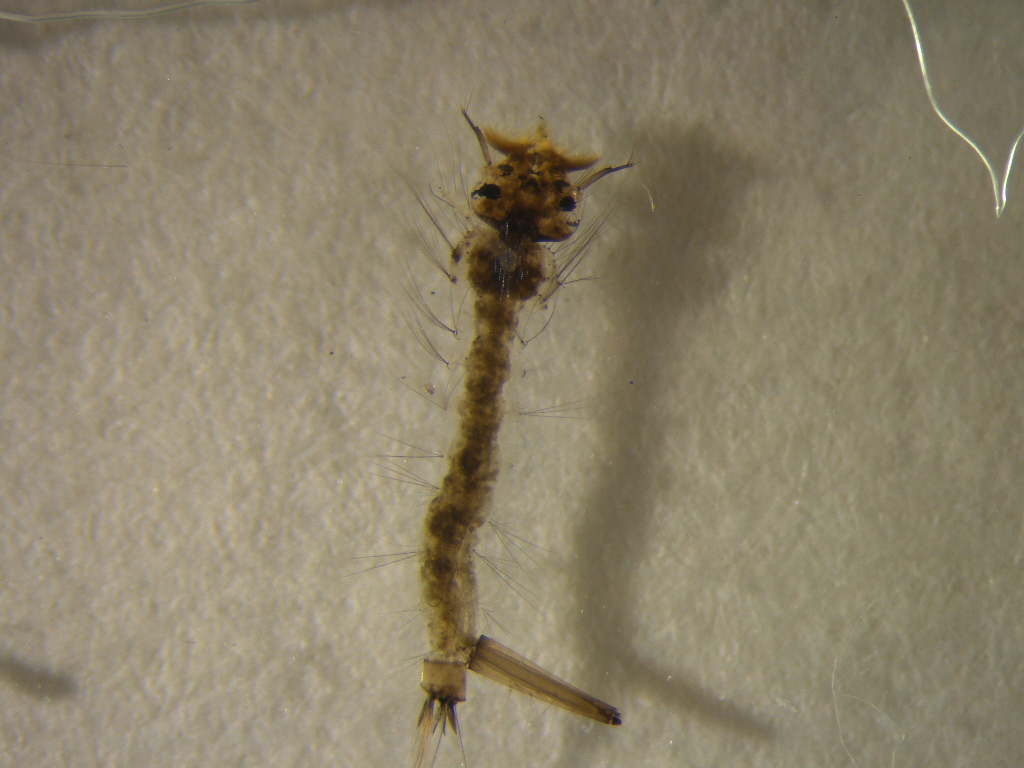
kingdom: Animalia
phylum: Arthropoda
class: Insecta
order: Diptera
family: Culicidae
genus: Culex
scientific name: Culex pervigilans
